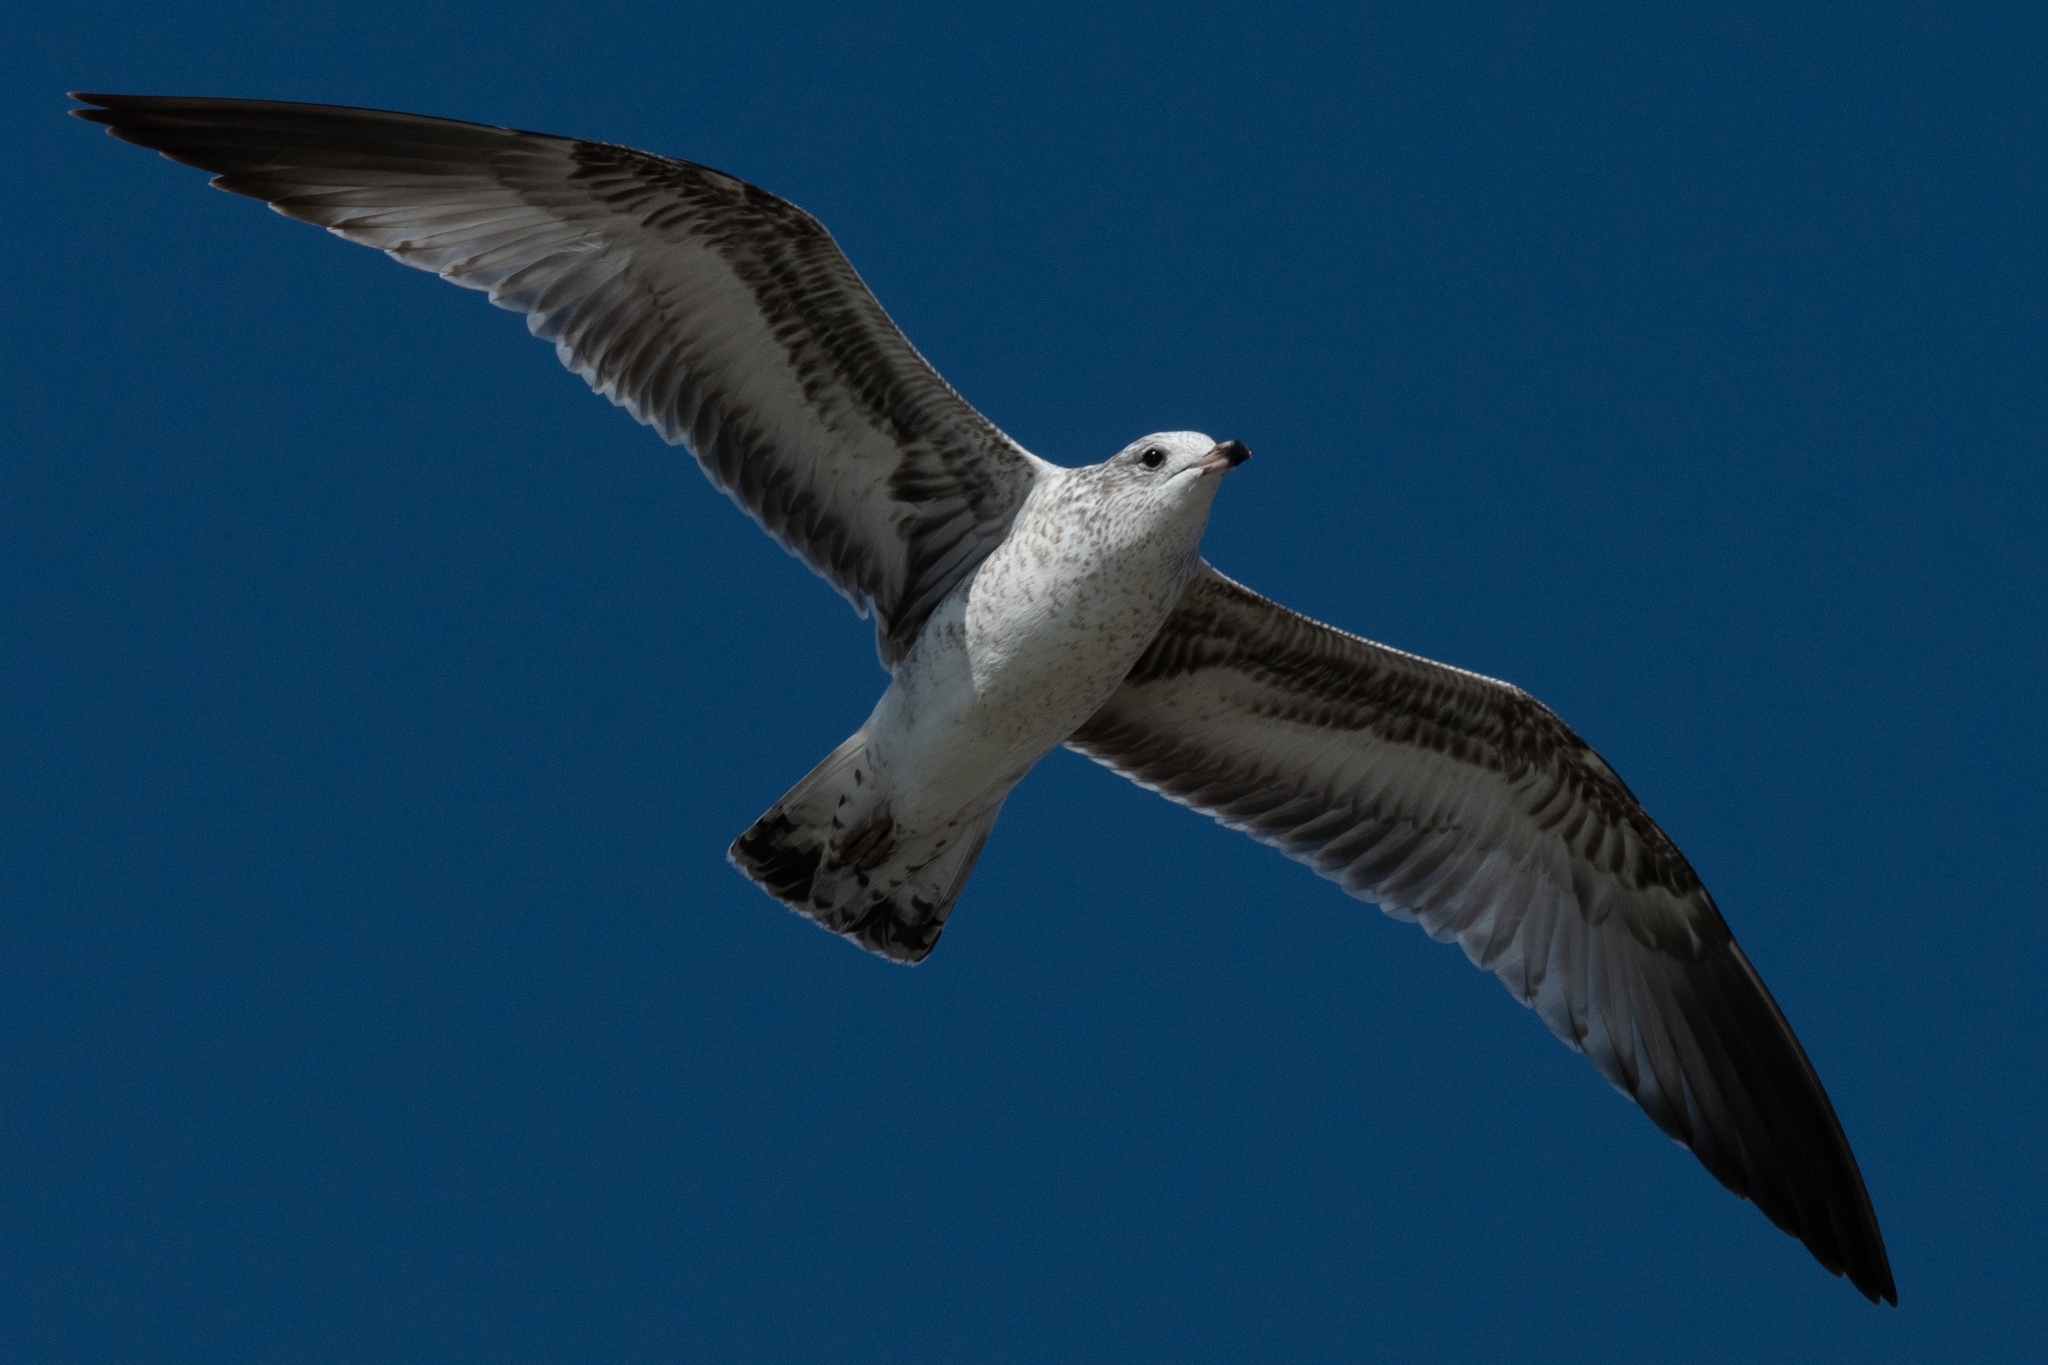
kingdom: Animalia
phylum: Chordata
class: Aves
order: Charadriiformes
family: Laridae
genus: Larus
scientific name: Larus delawarensis
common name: Ring-billed gull
